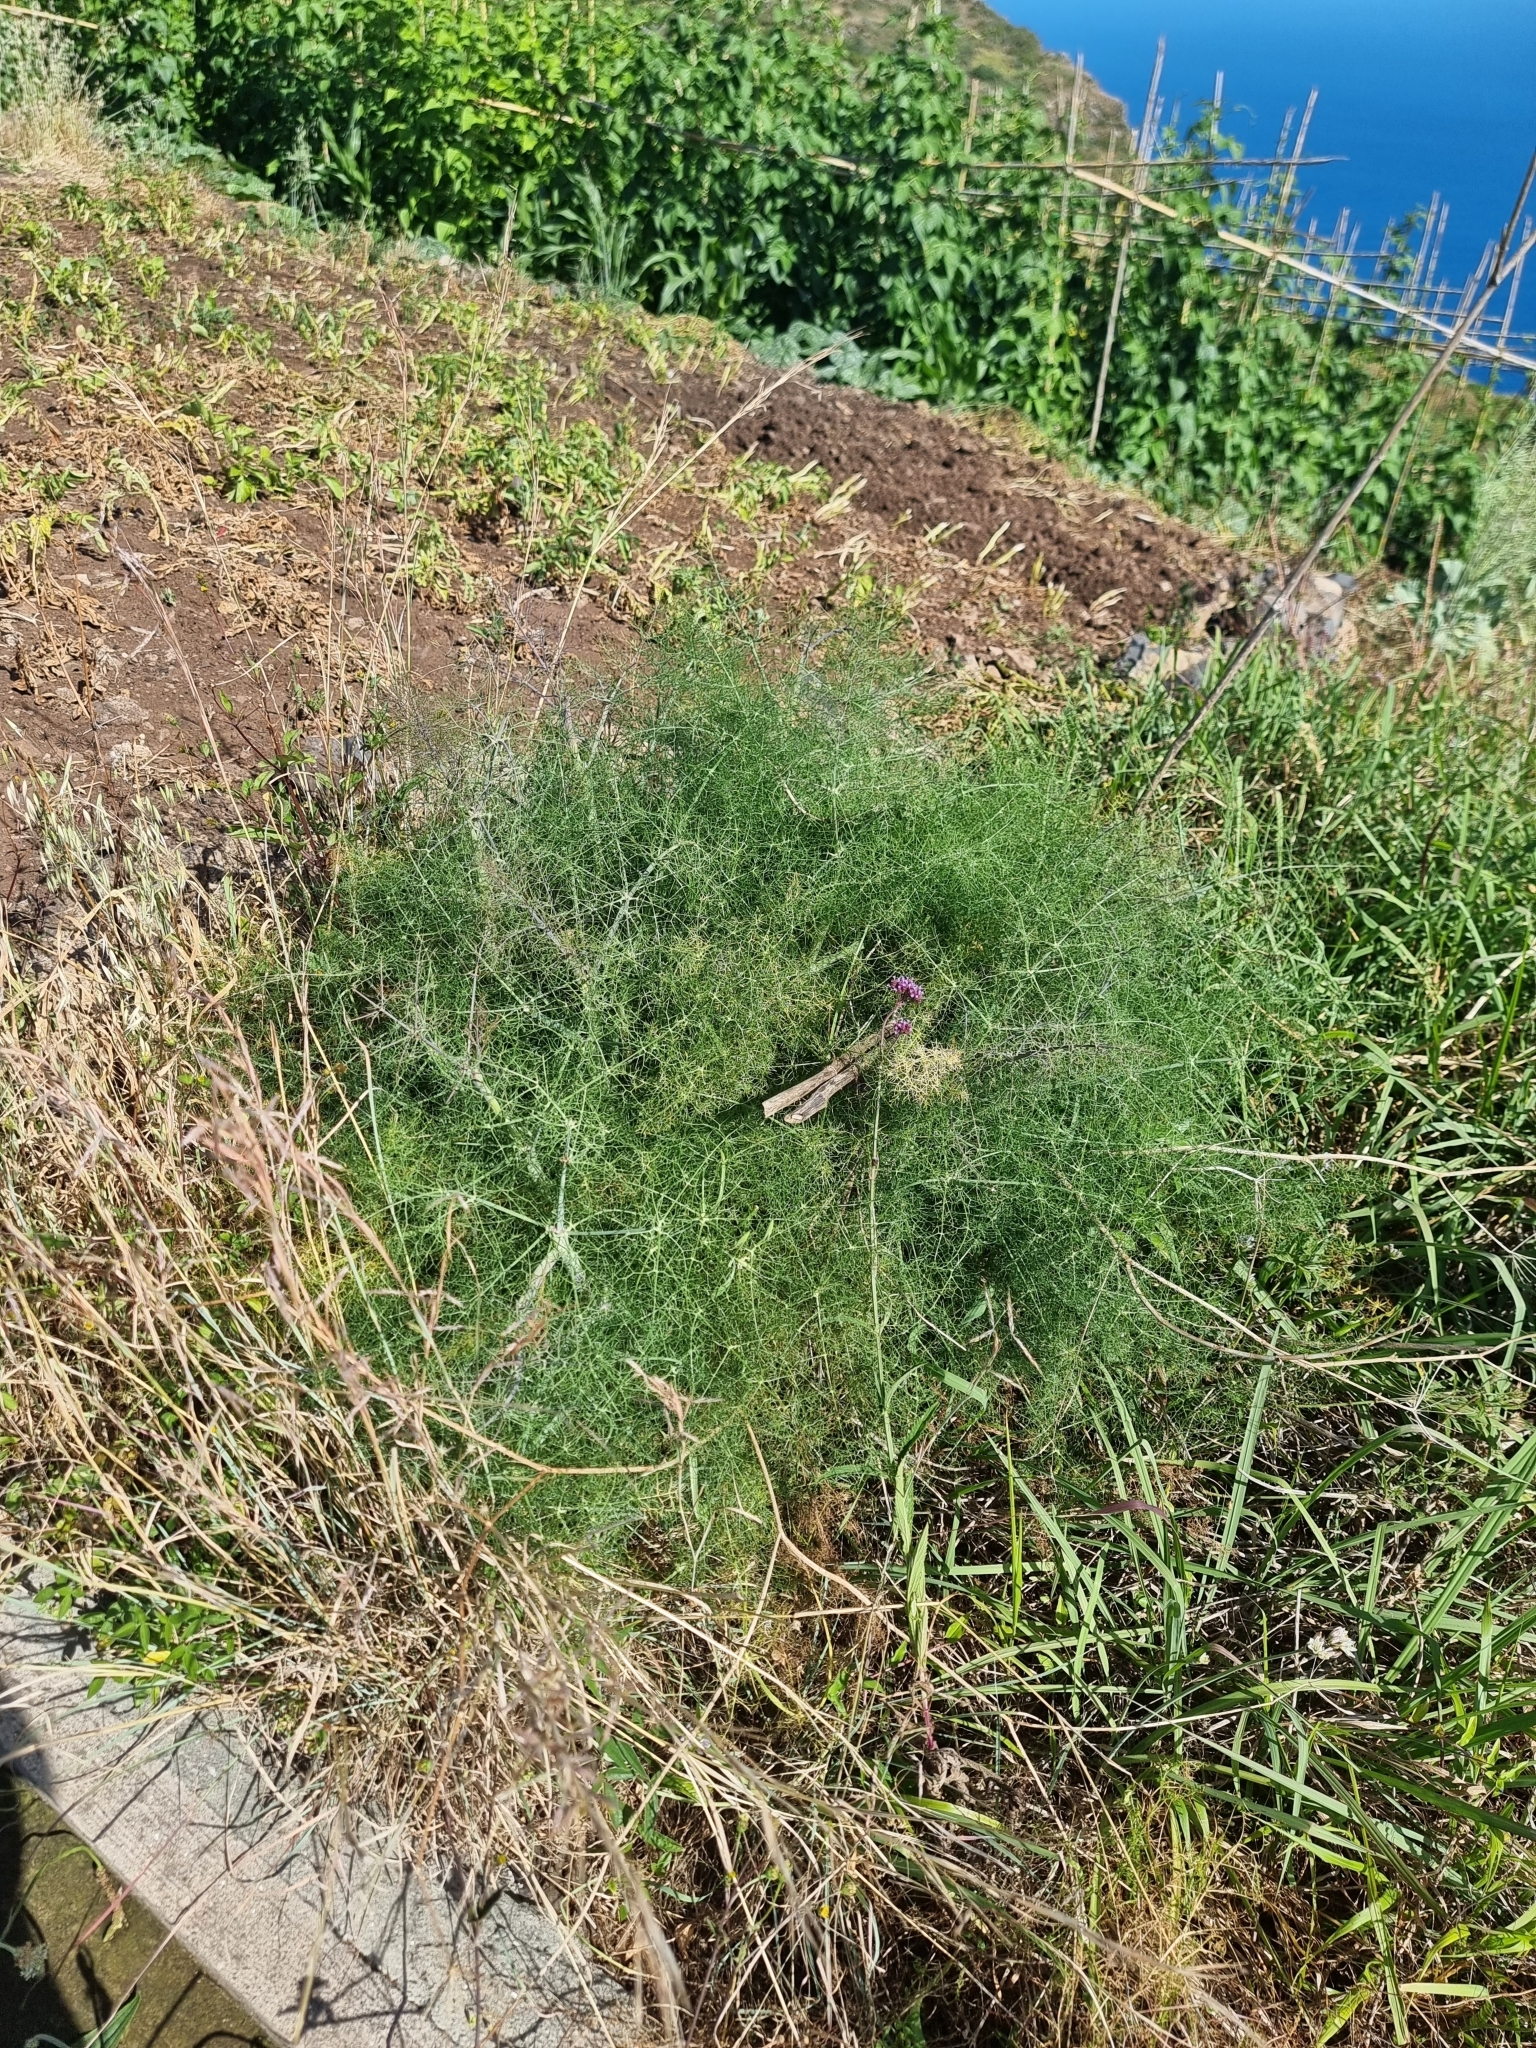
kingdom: Plantae
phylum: Tracheophyta
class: Magnoliopsida
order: Apiales
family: Apiaceae
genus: Foeniculum
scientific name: Foeniculum vulgare
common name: Fennel
